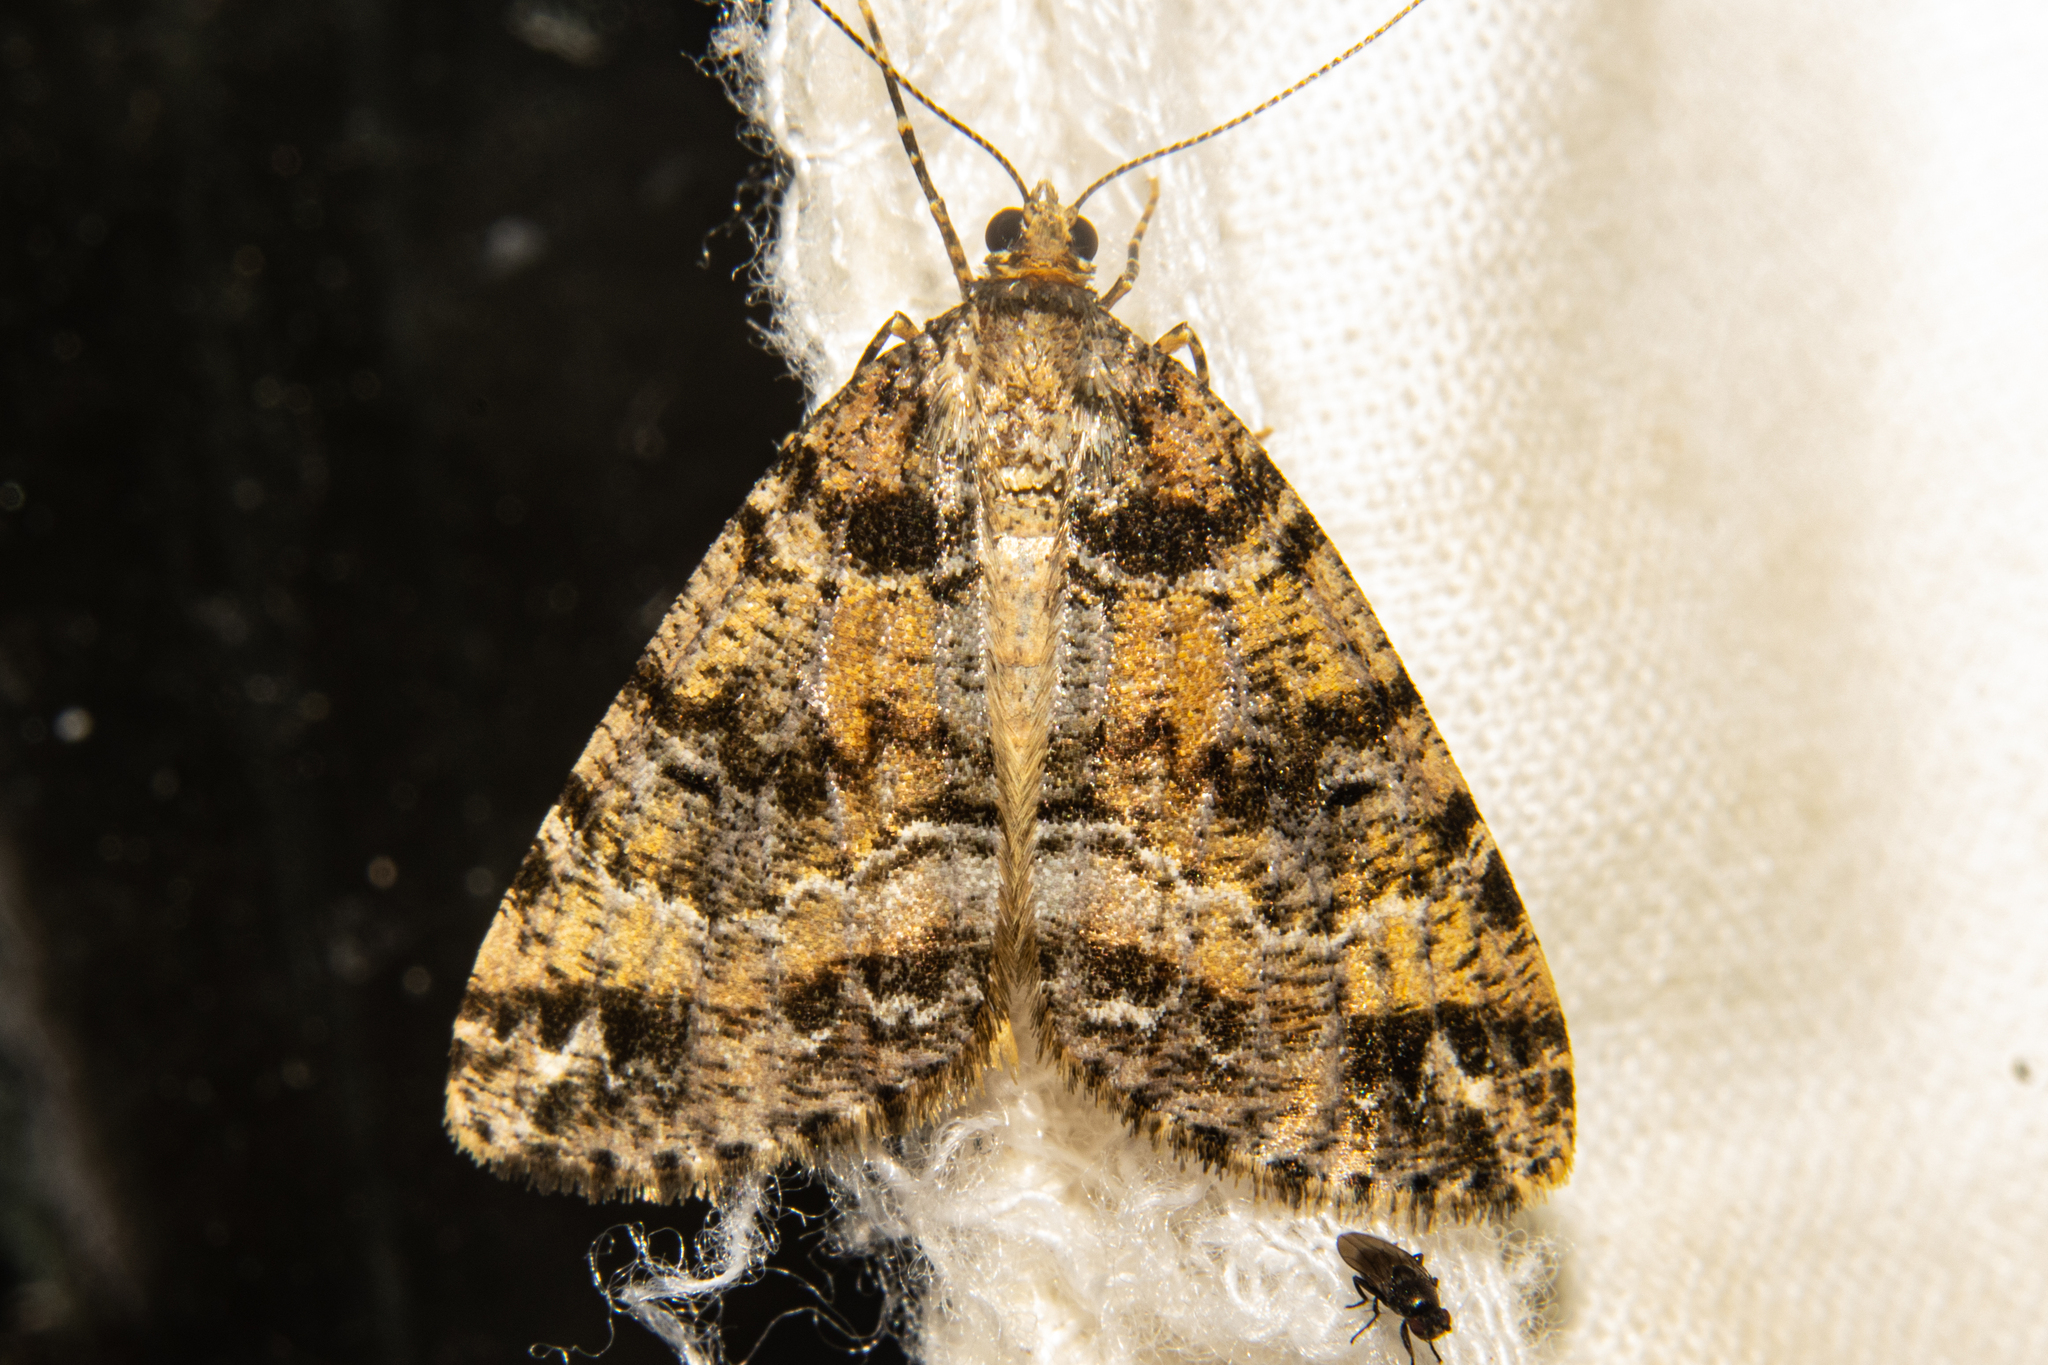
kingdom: Animalia
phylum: Arthropoda
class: Insecta
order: Lepidoptera
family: Geometridae
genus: Pseudocoremia
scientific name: Pseudocoremia productata
